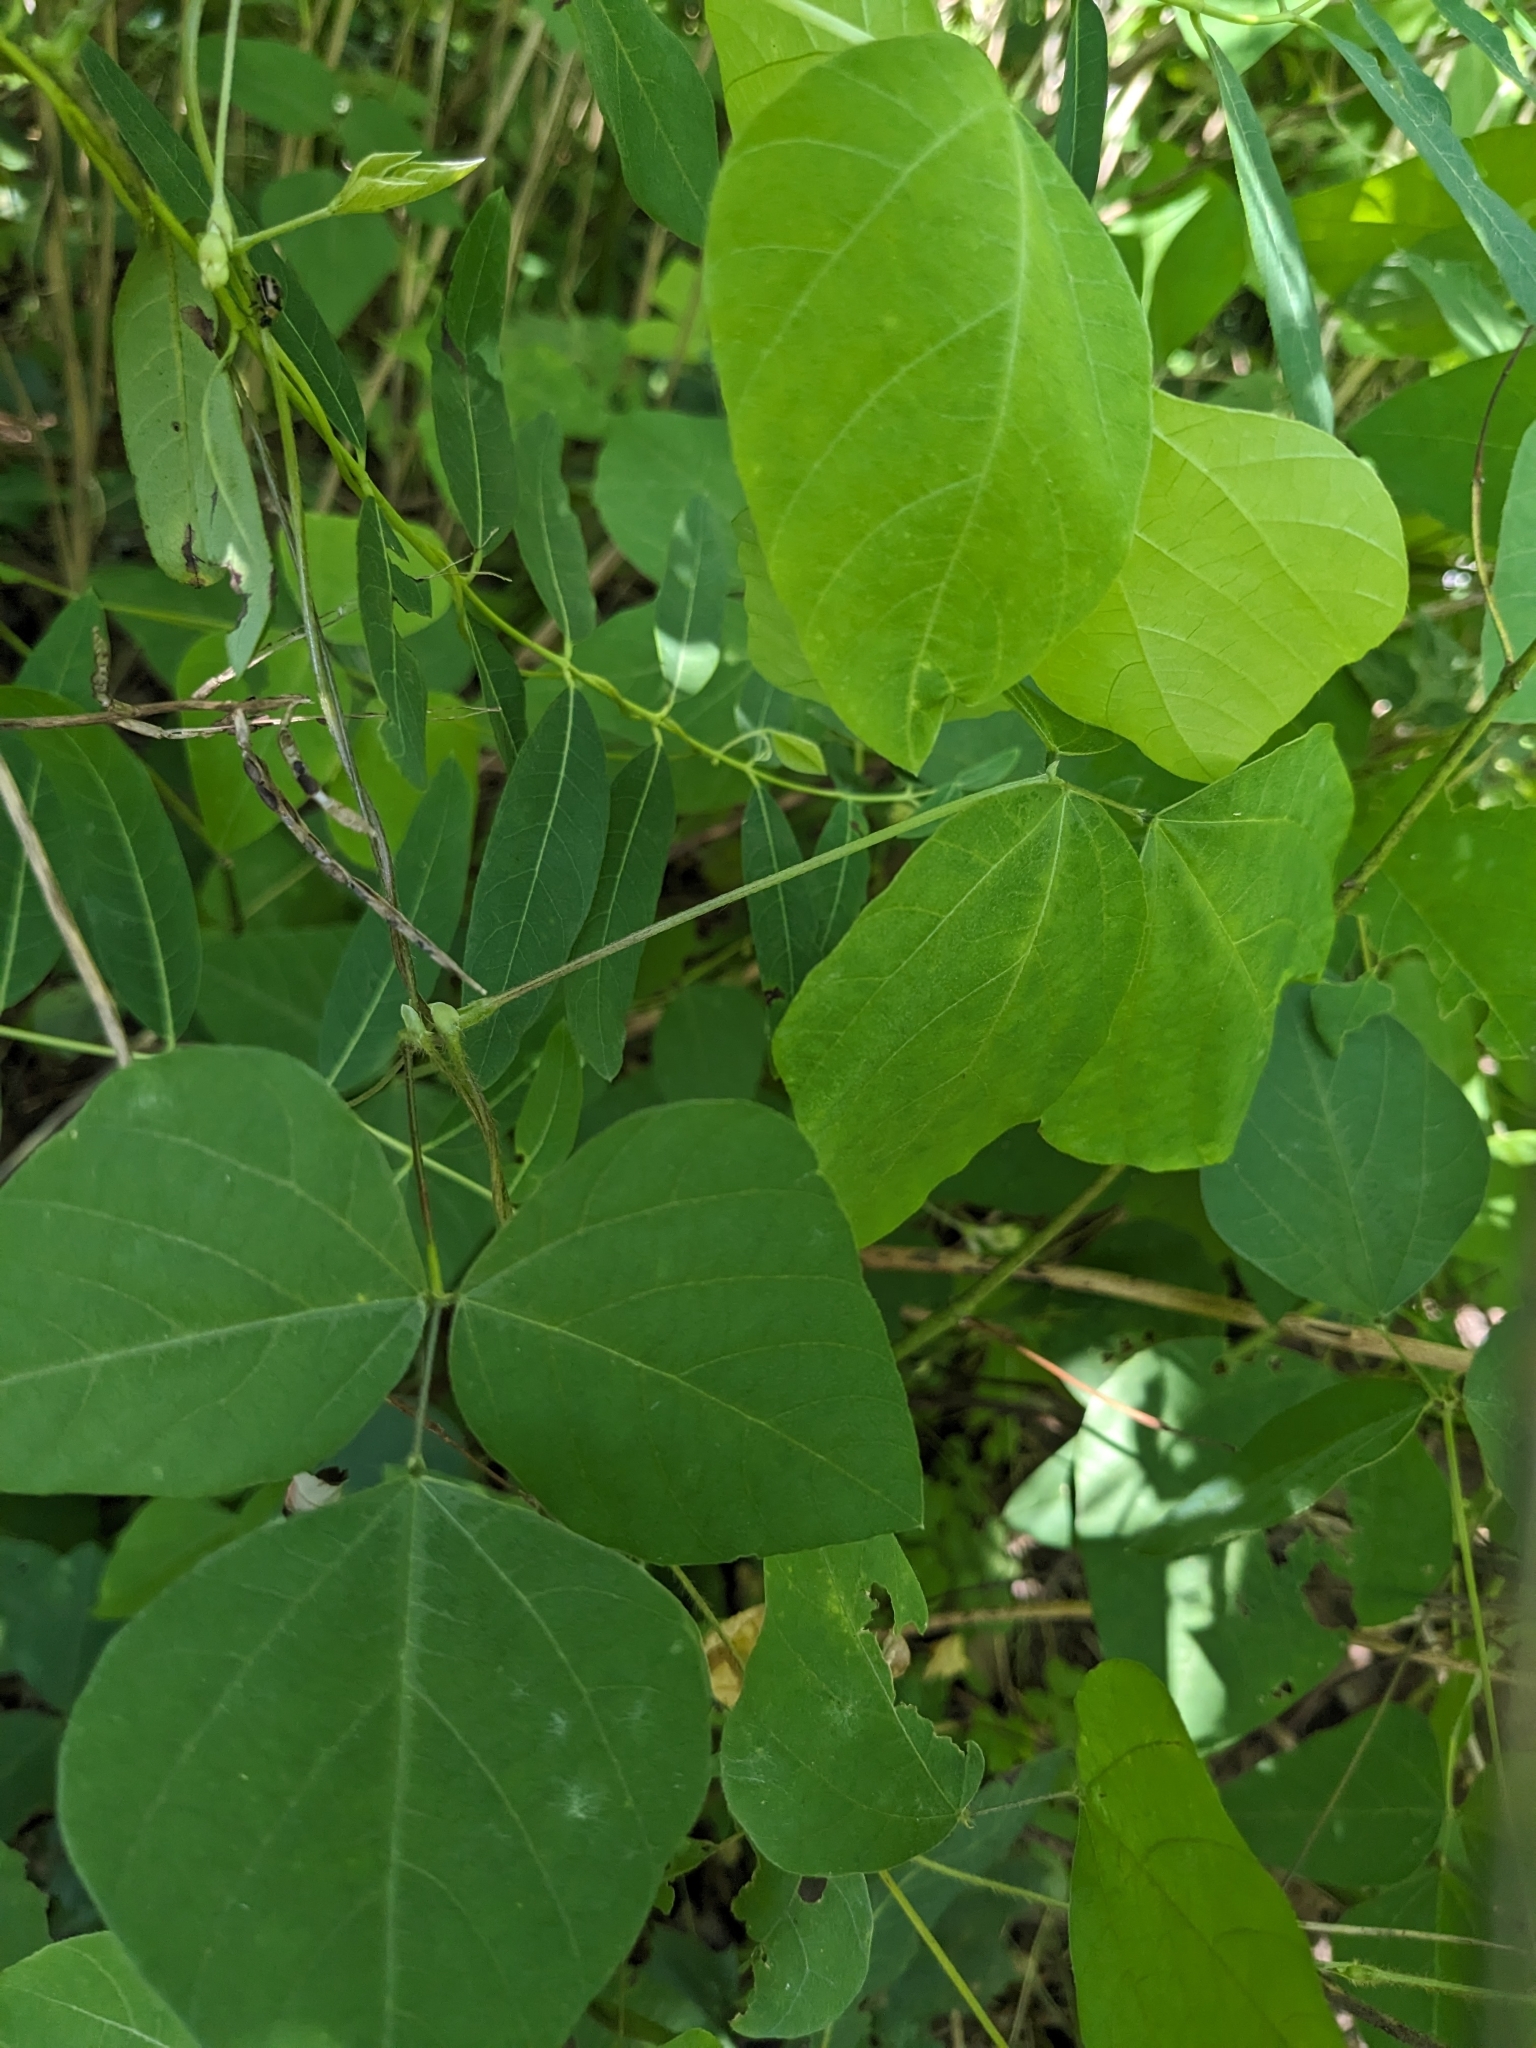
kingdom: Animalia
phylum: Arthropoda
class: Insecta
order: Coleoptera
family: Chrysomelidae
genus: Cerotoma
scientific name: Cerotoma trifurcata
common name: Bean leaf beetle
